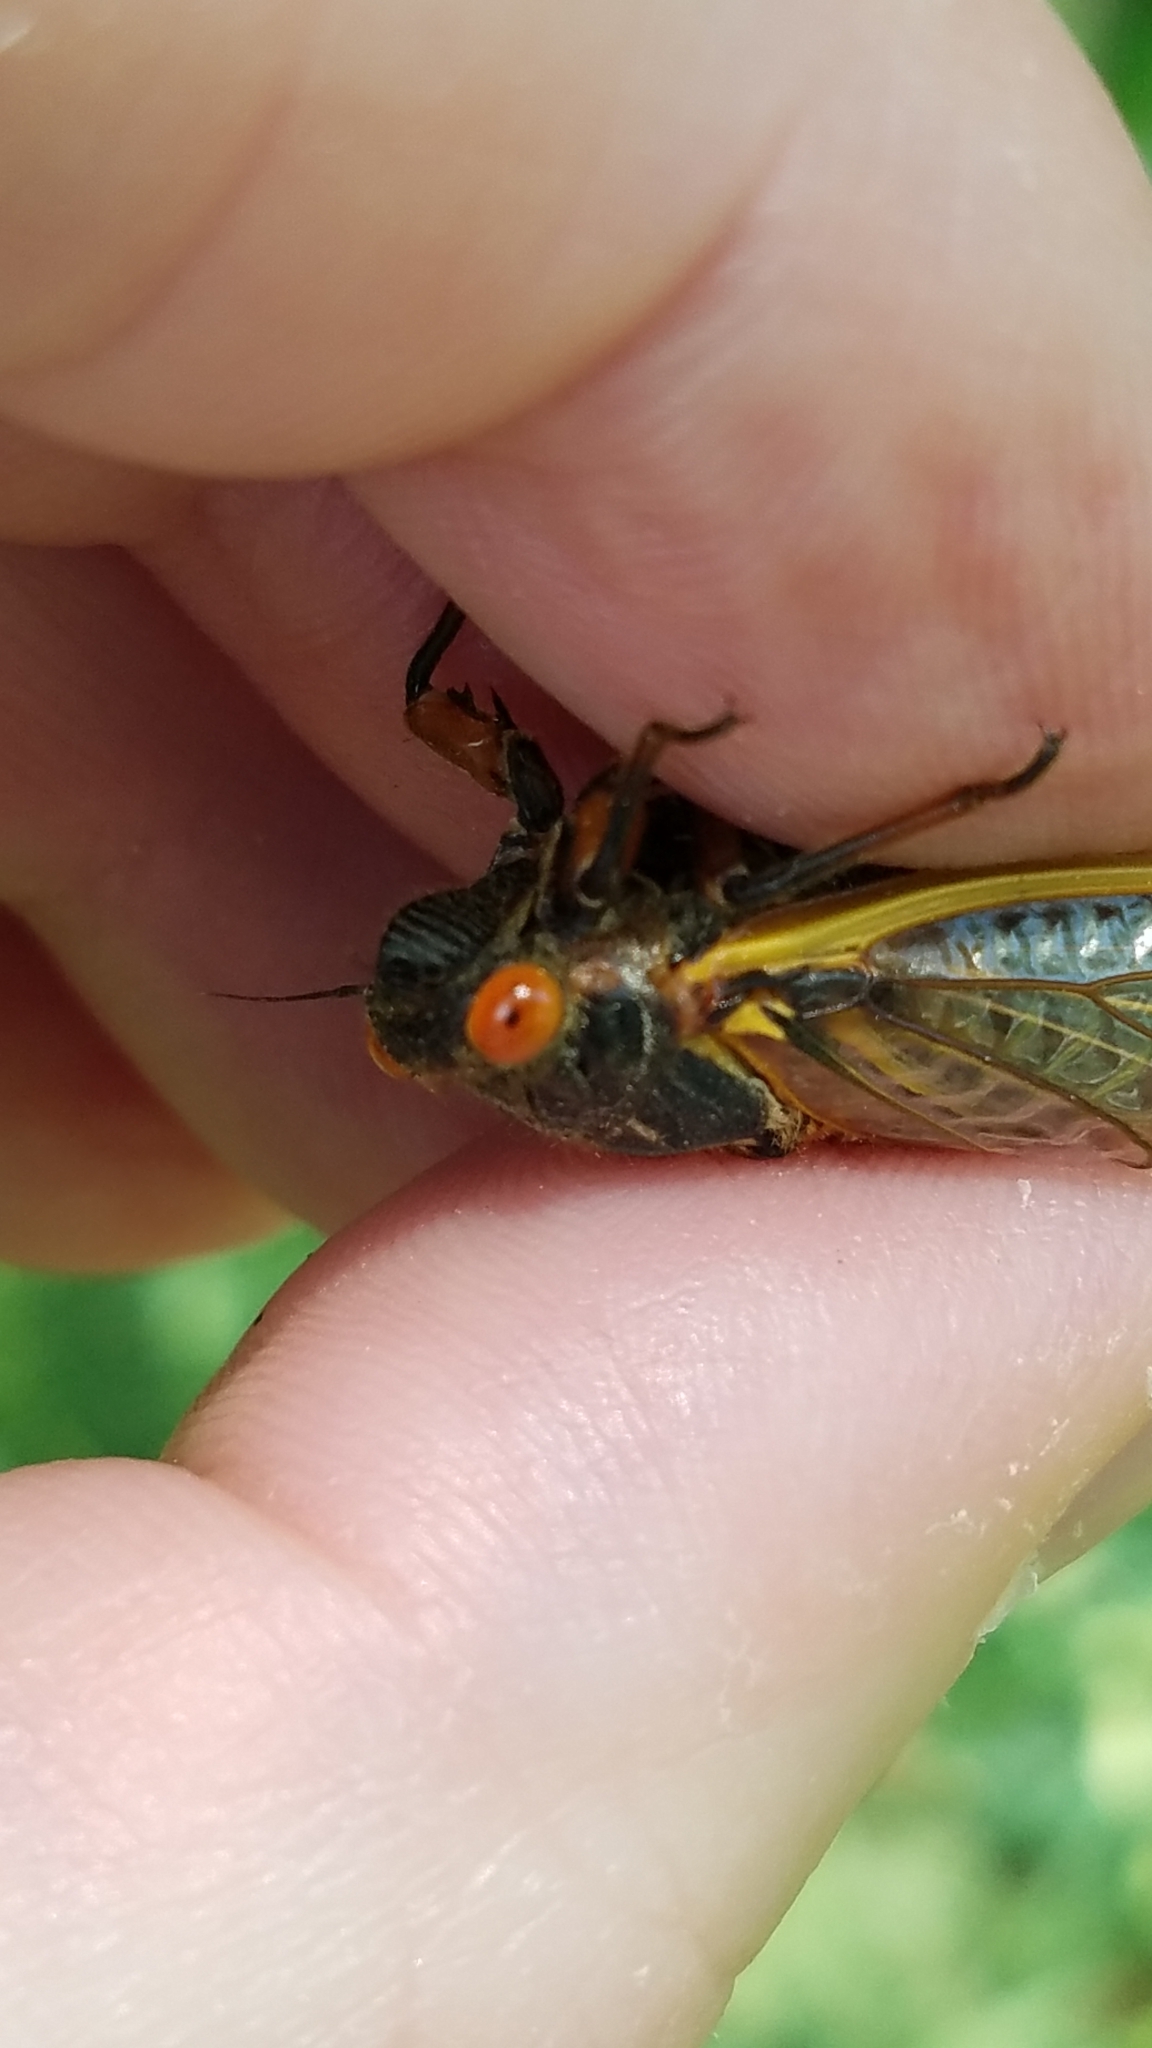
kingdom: Animalia
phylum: Arthropoda
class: Insecta
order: Hemiptera
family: Cicadidae
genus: Magicicada
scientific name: Magicicada septendecim
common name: Periodical cicada
